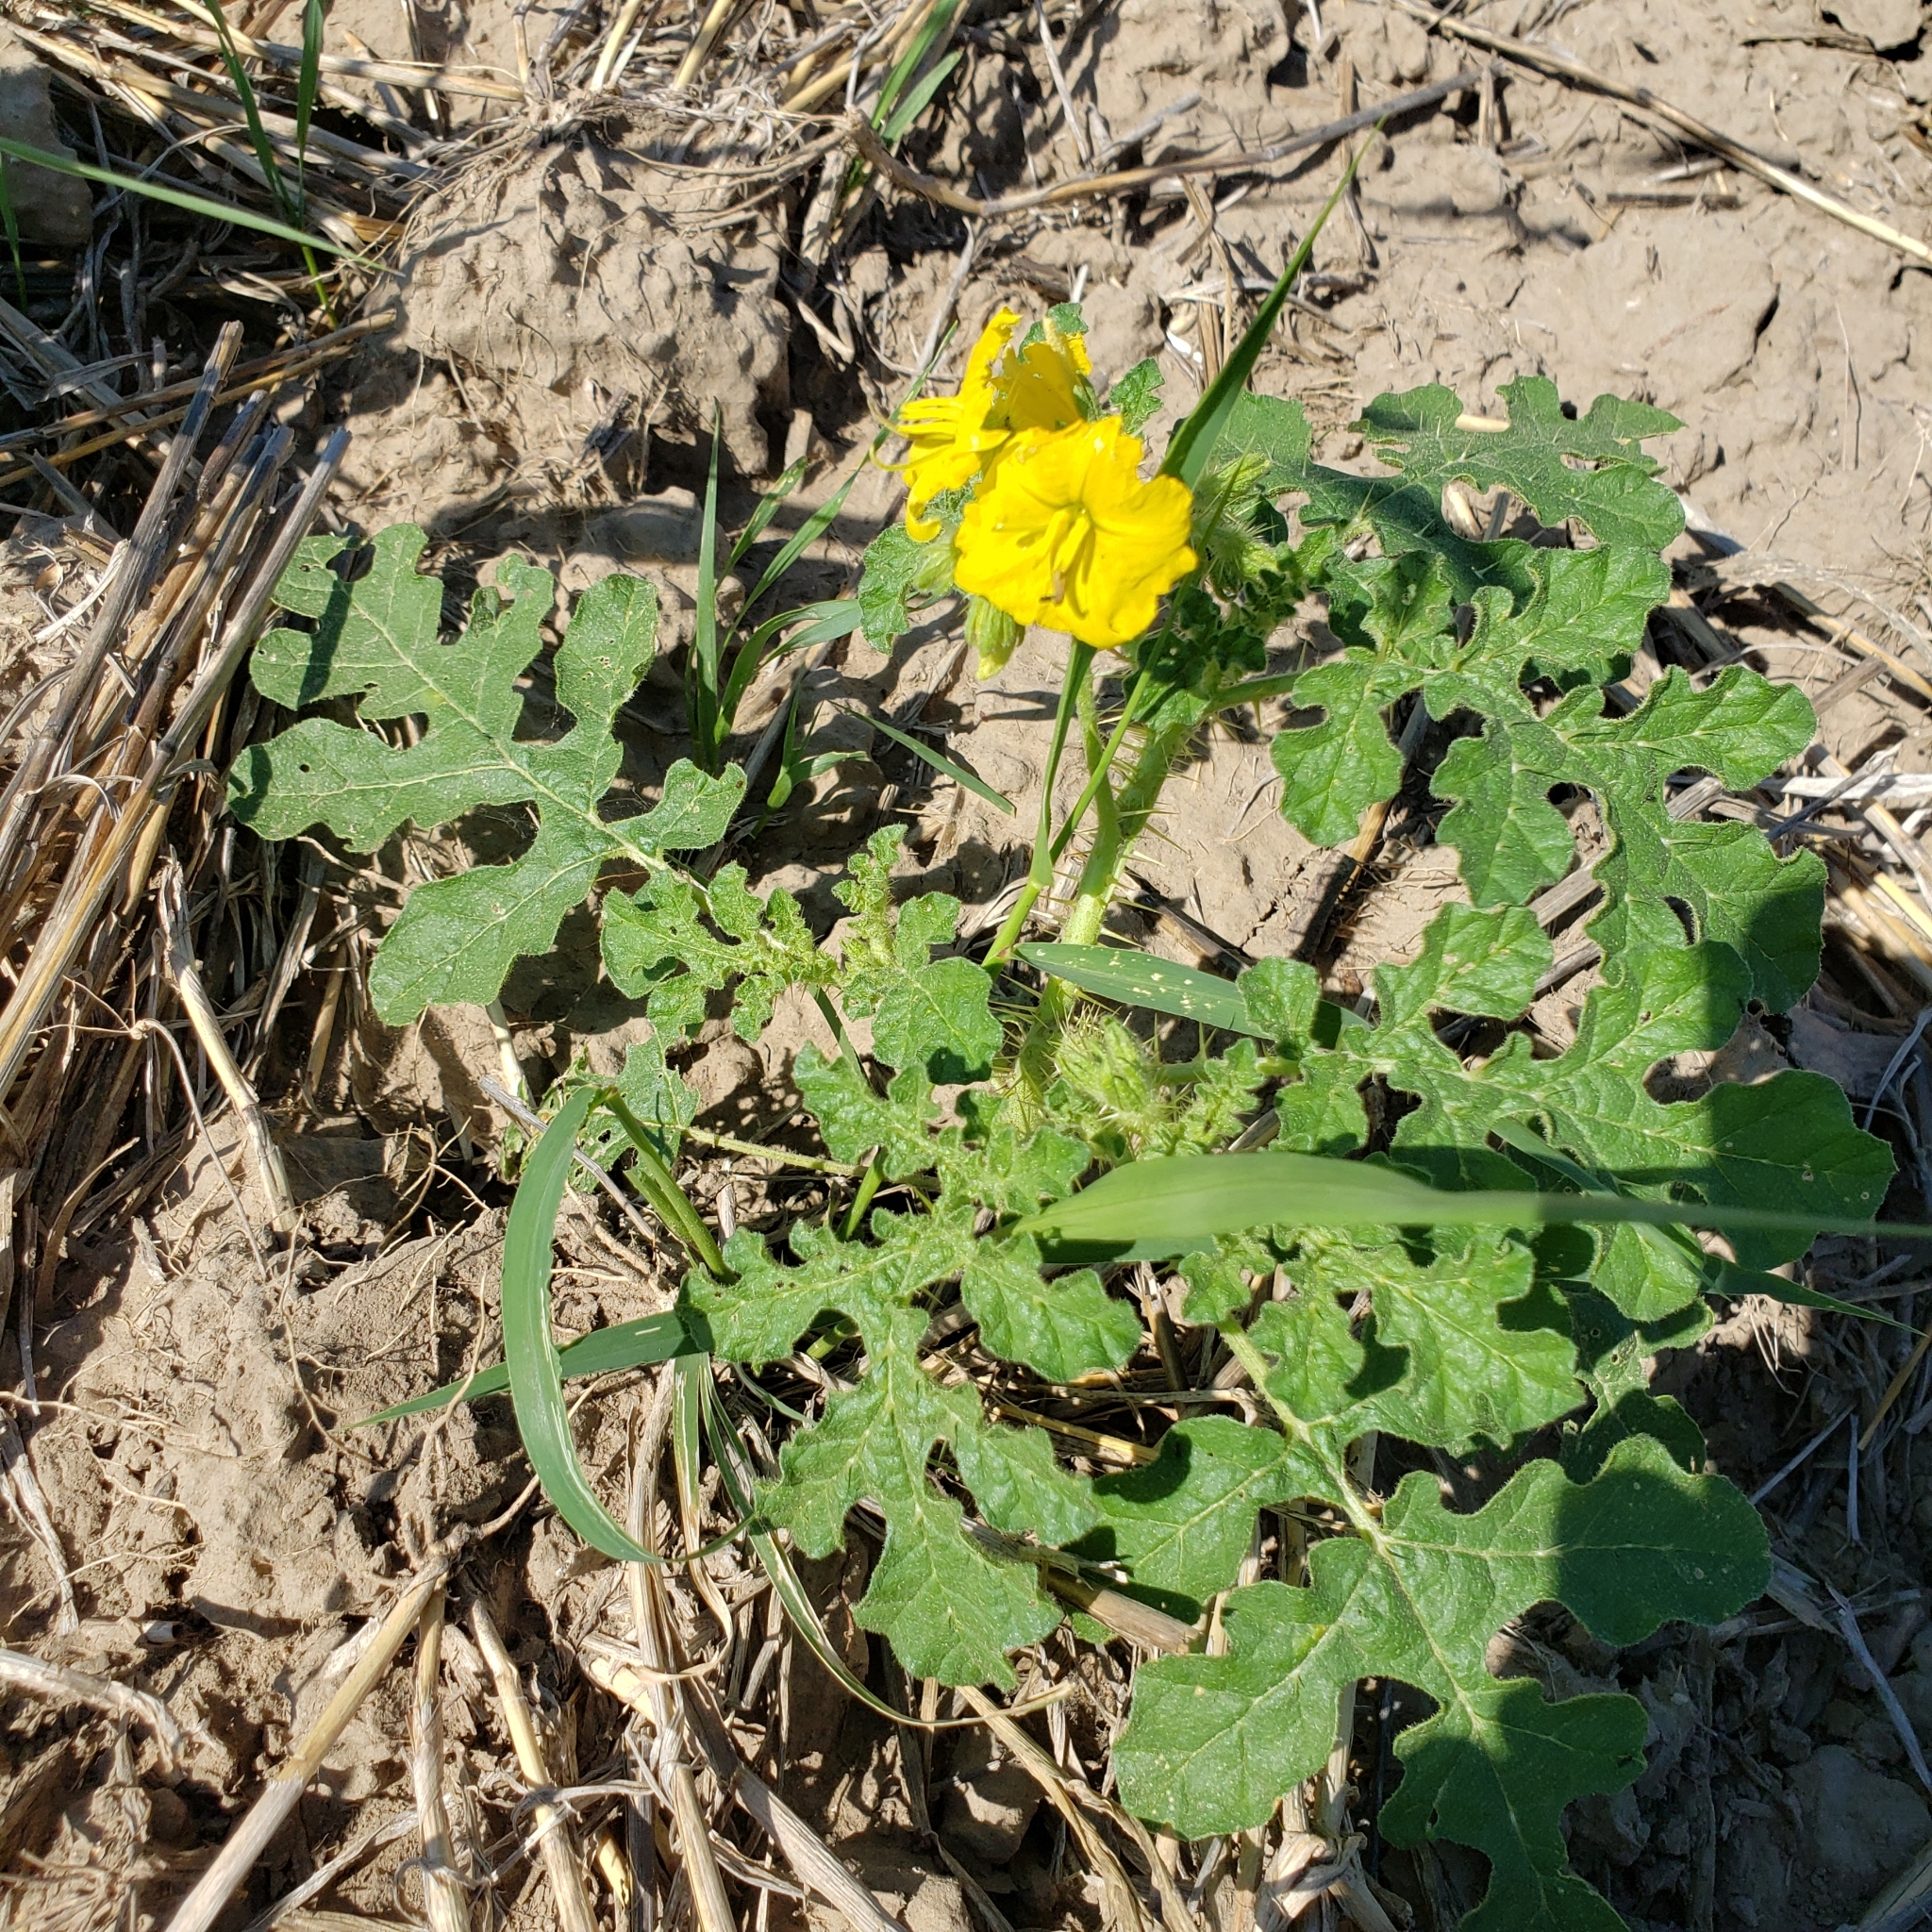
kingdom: Plantae
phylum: Tracheophyta
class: Magnoliopsida
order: Solanales
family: Solanaceae
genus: Solanum
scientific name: Solanum angustifolium
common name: Buffalobur nightshade
